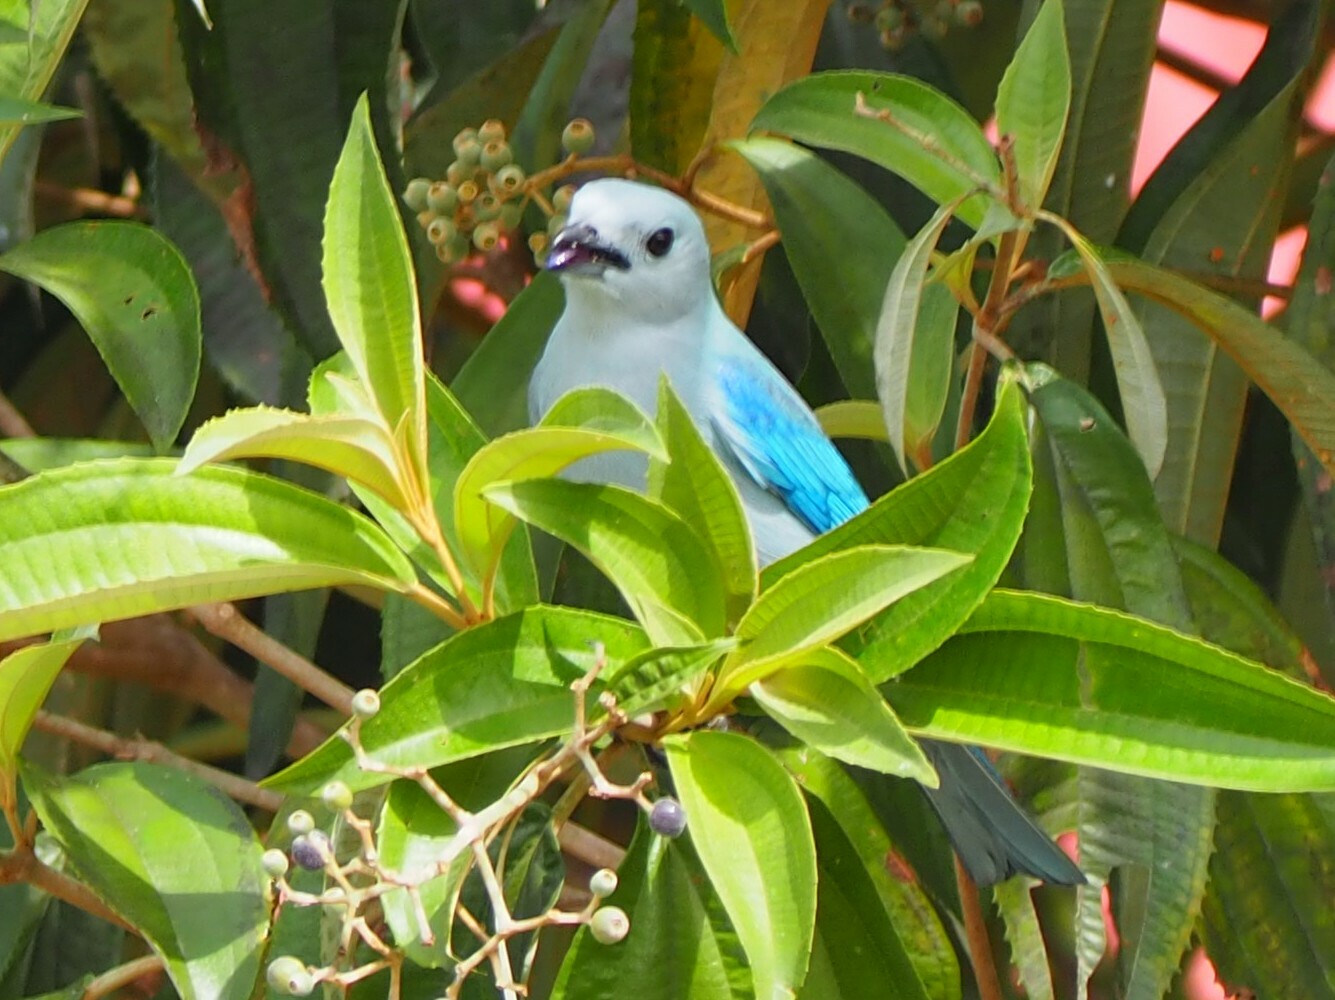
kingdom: Animalia
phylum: Chordata
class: Aves
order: Passeriformes
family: Thraupidae
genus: Thraupis
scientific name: Thraupis episcopus
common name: Blue-grey tanager
